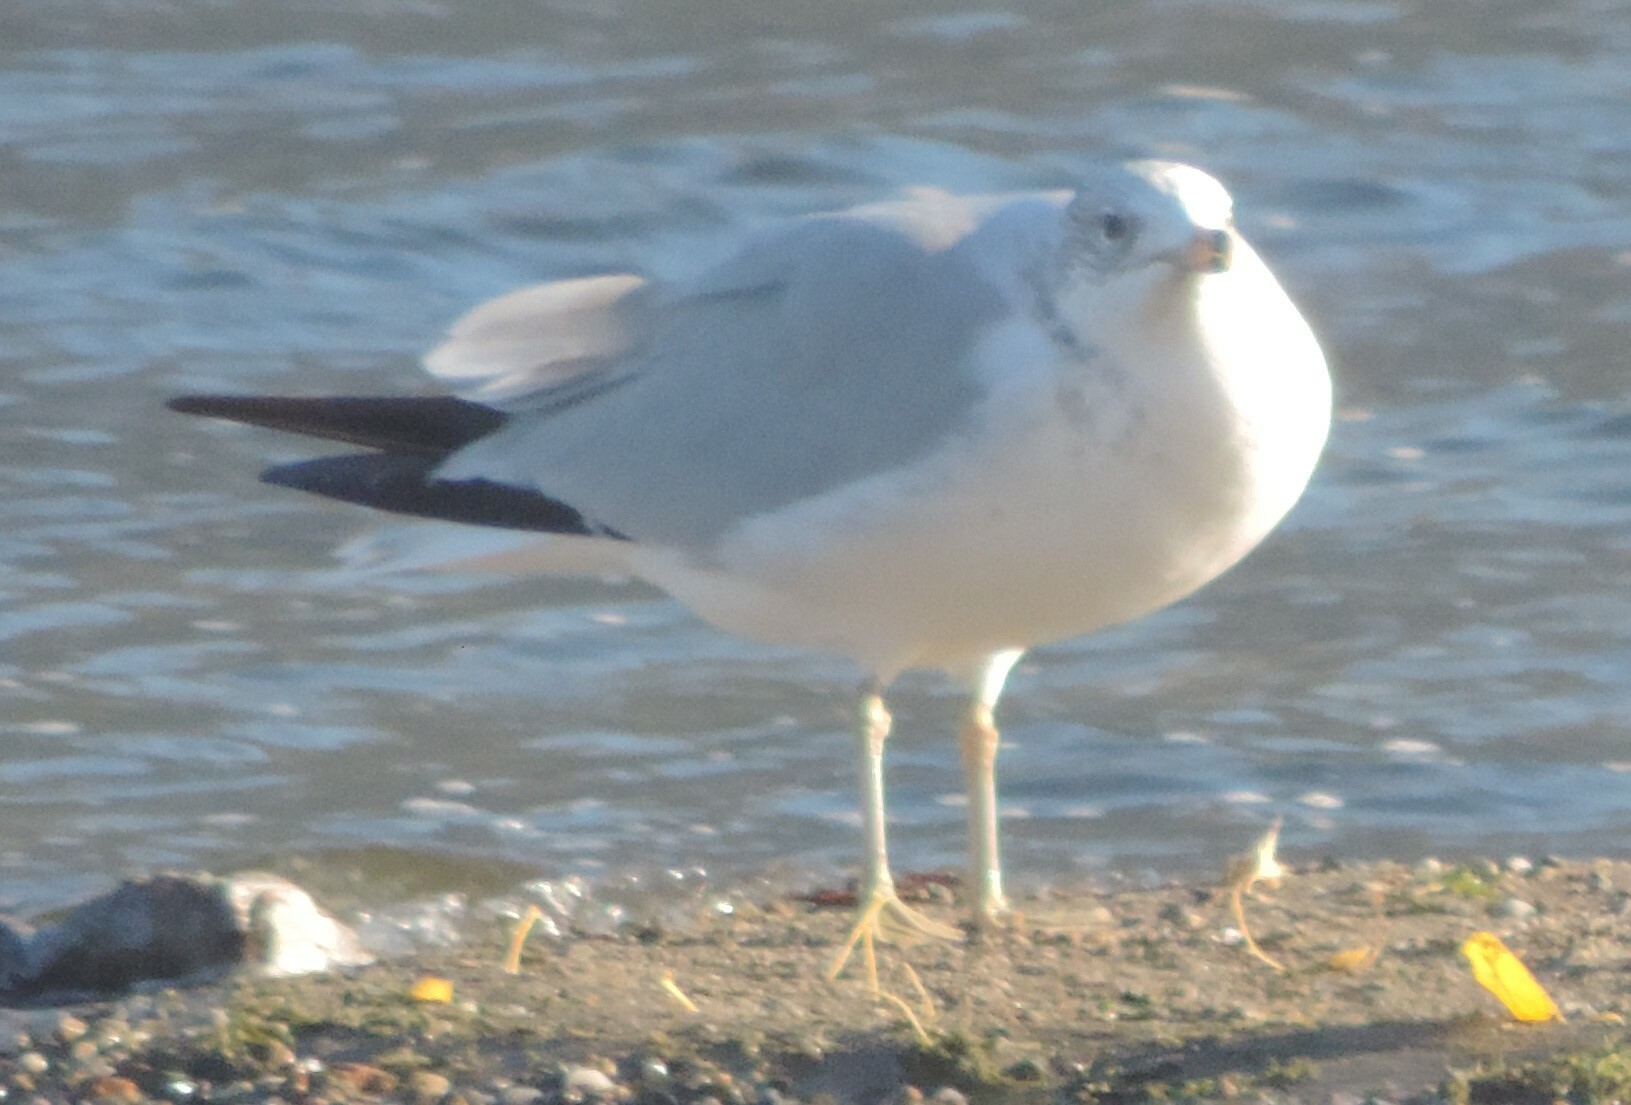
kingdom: Animalia
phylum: Chordata
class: Aves
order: Charadriiformes
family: Laridae
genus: Larus
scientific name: Larus delawarensis
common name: Ring-billed gull
